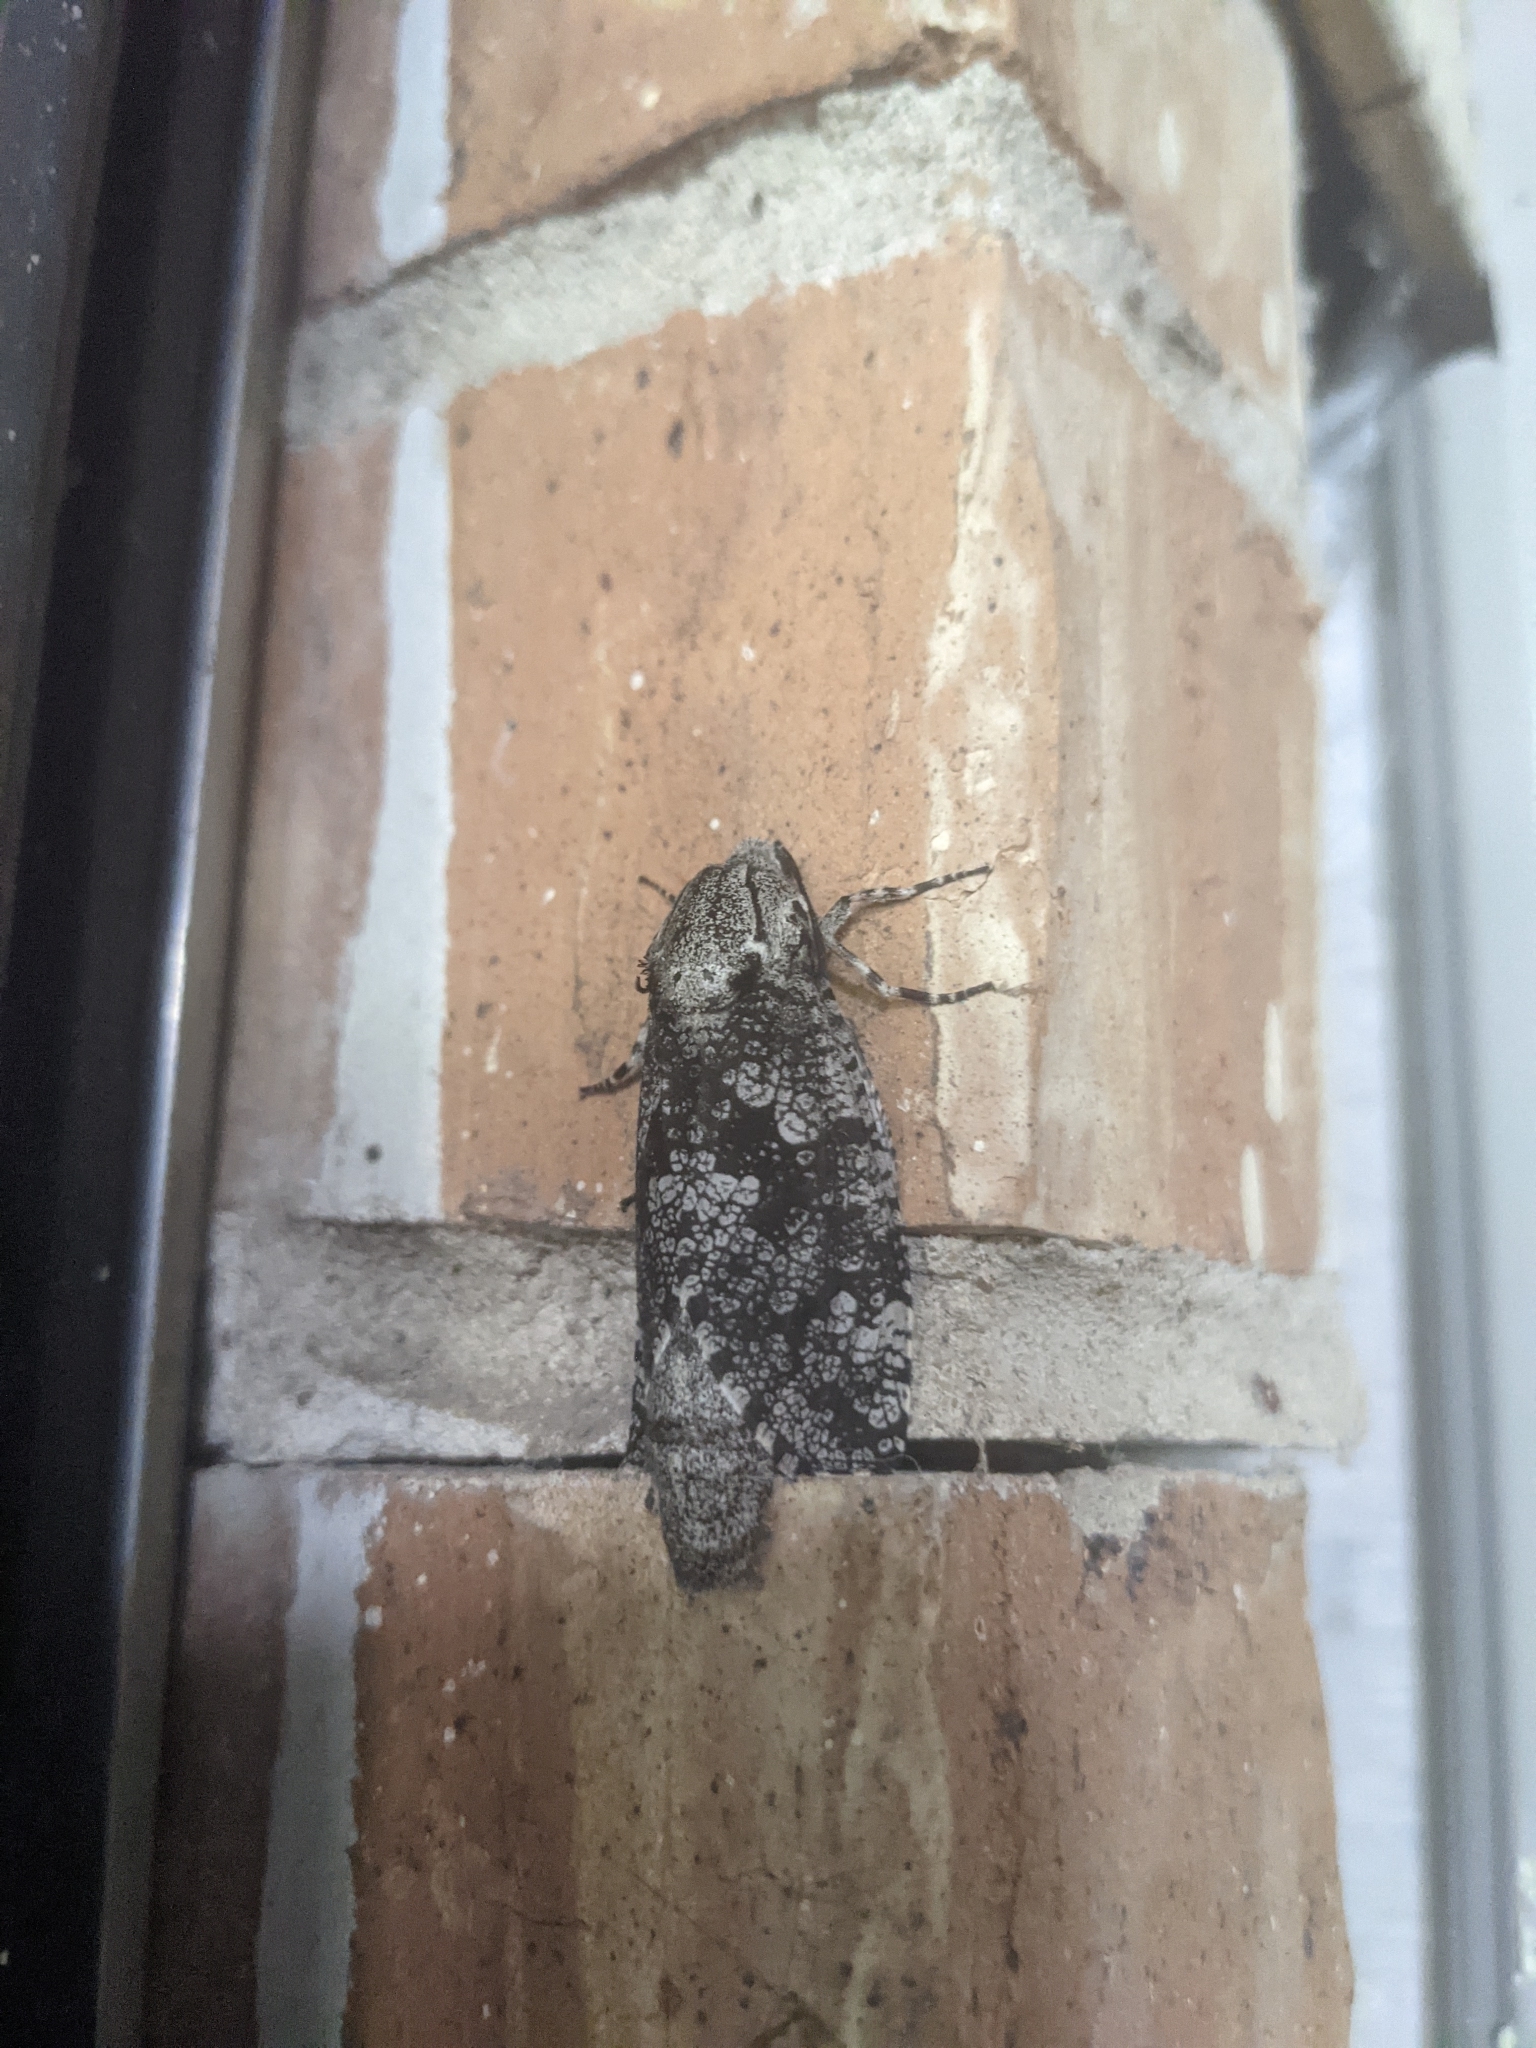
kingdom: Animalia
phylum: Arthropoda
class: Insecta
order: Lepidoptera
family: Cossidae
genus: Prionoxystus
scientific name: Prionoxystus robiniae
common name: Carpenterworm
